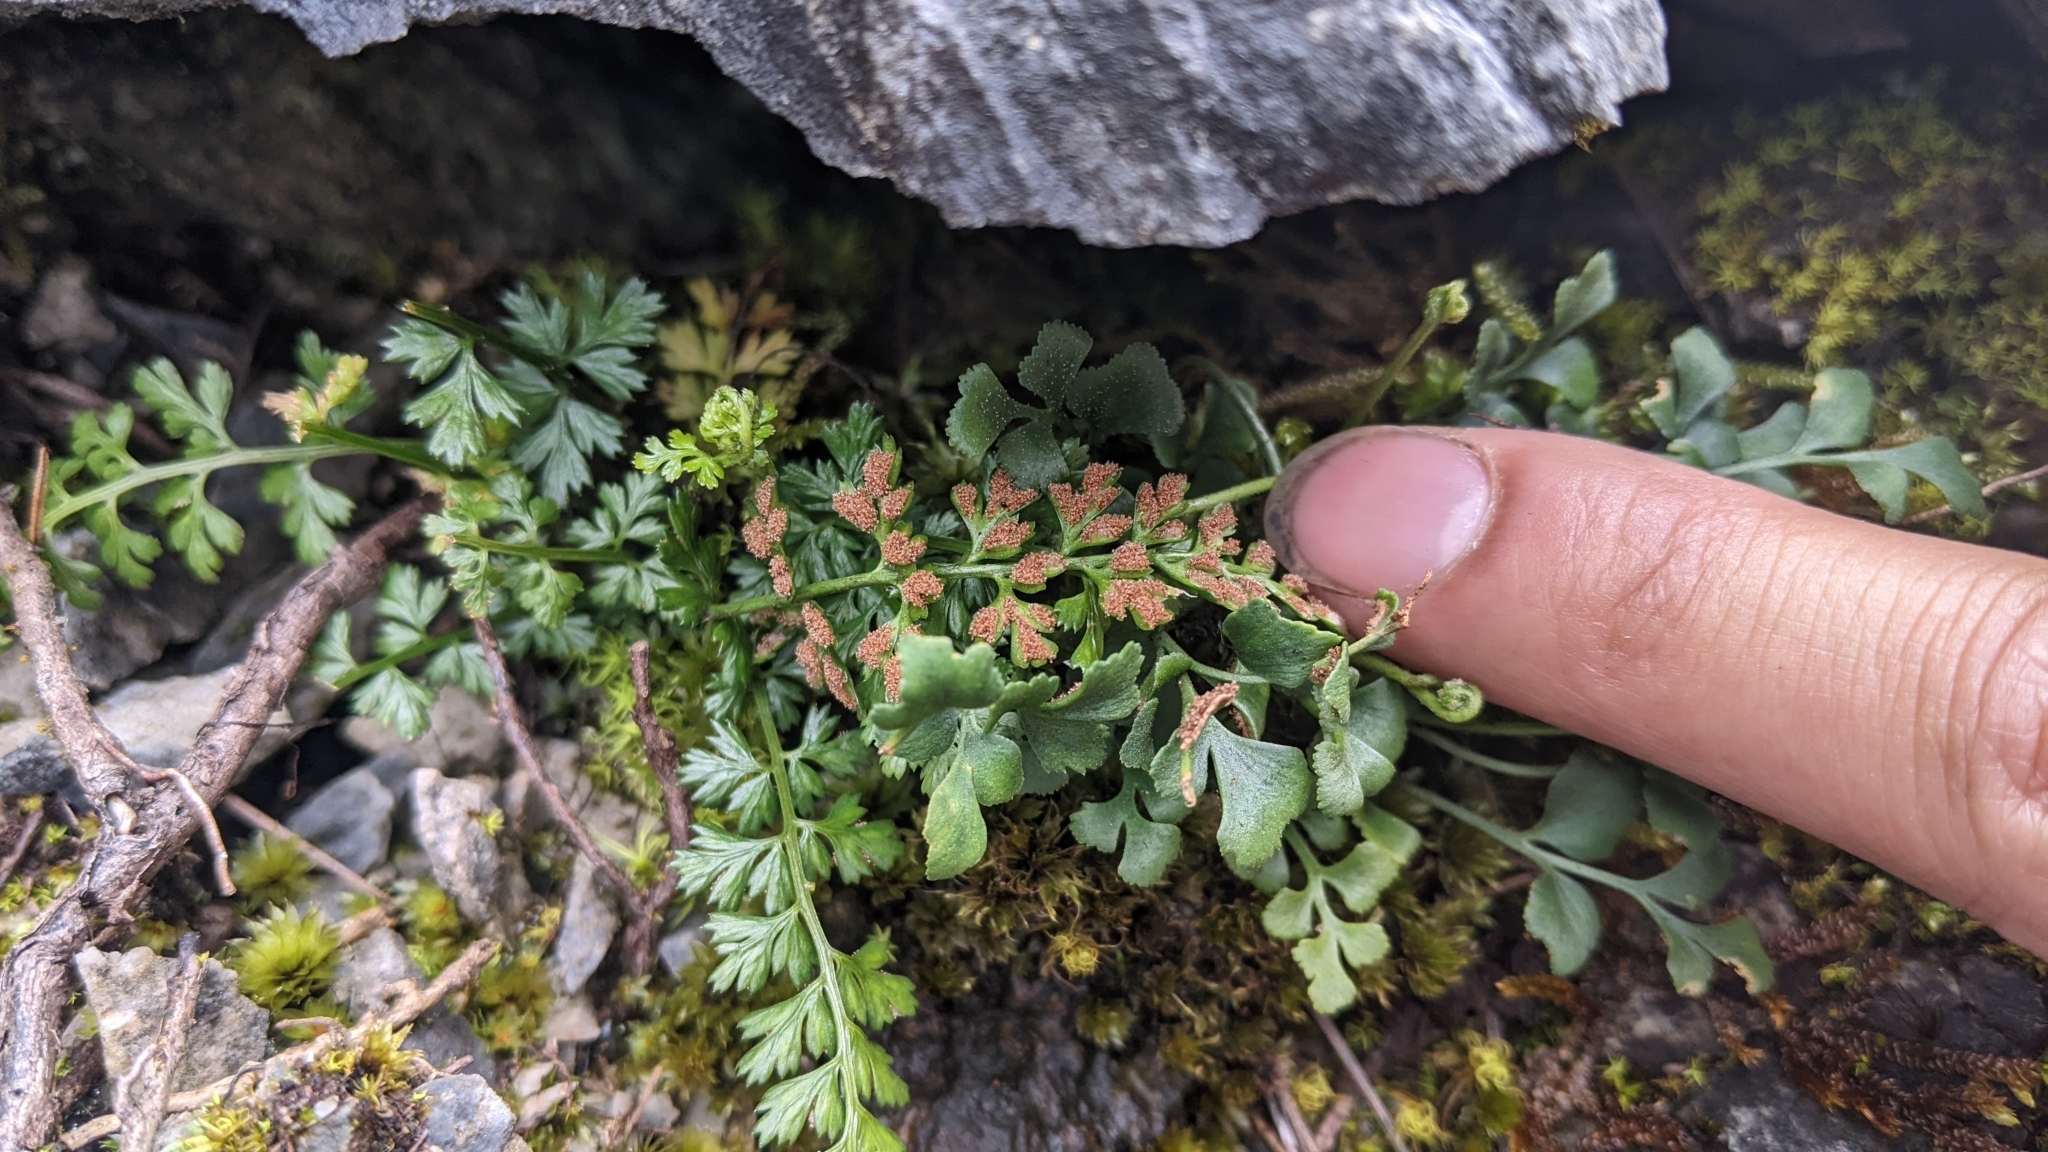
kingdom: Plantae
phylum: Tracheophyta
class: Polypodiopsida
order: Polypodiales
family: Aspleniaceae
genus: Asplenium
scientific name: Asplenium sarelii
